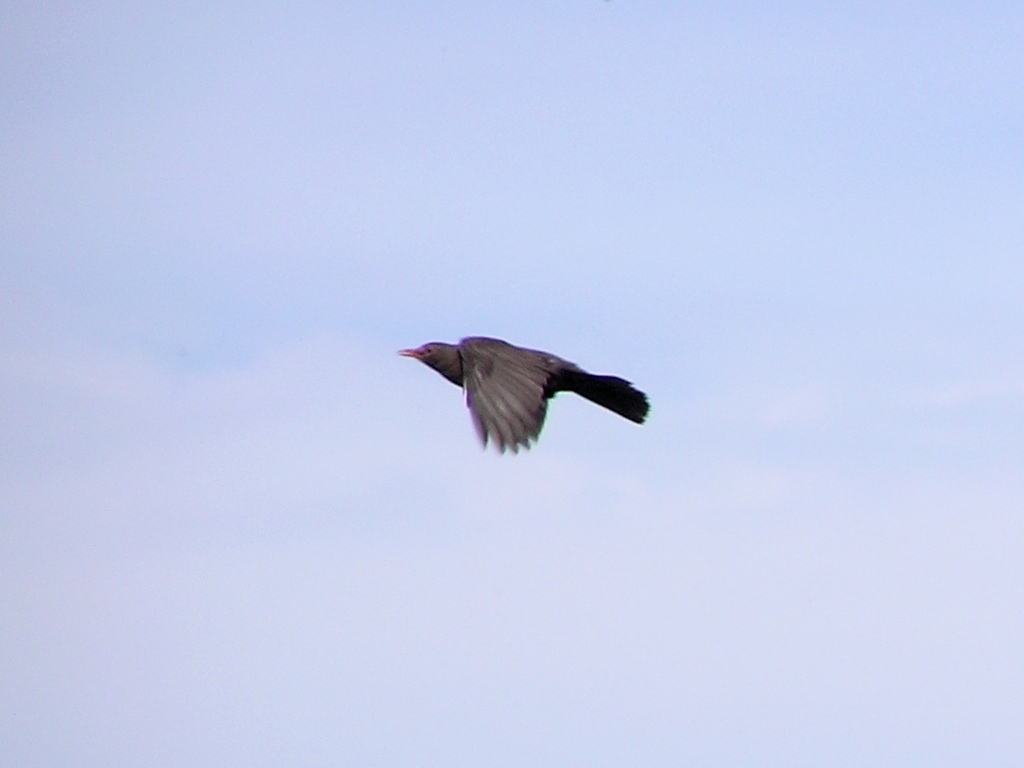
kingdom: Animalia
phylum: Chordata
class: Aves
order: Passeriformes
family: Turdidae
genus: Turdus
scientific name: Turdus merula
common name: Common blackbird
